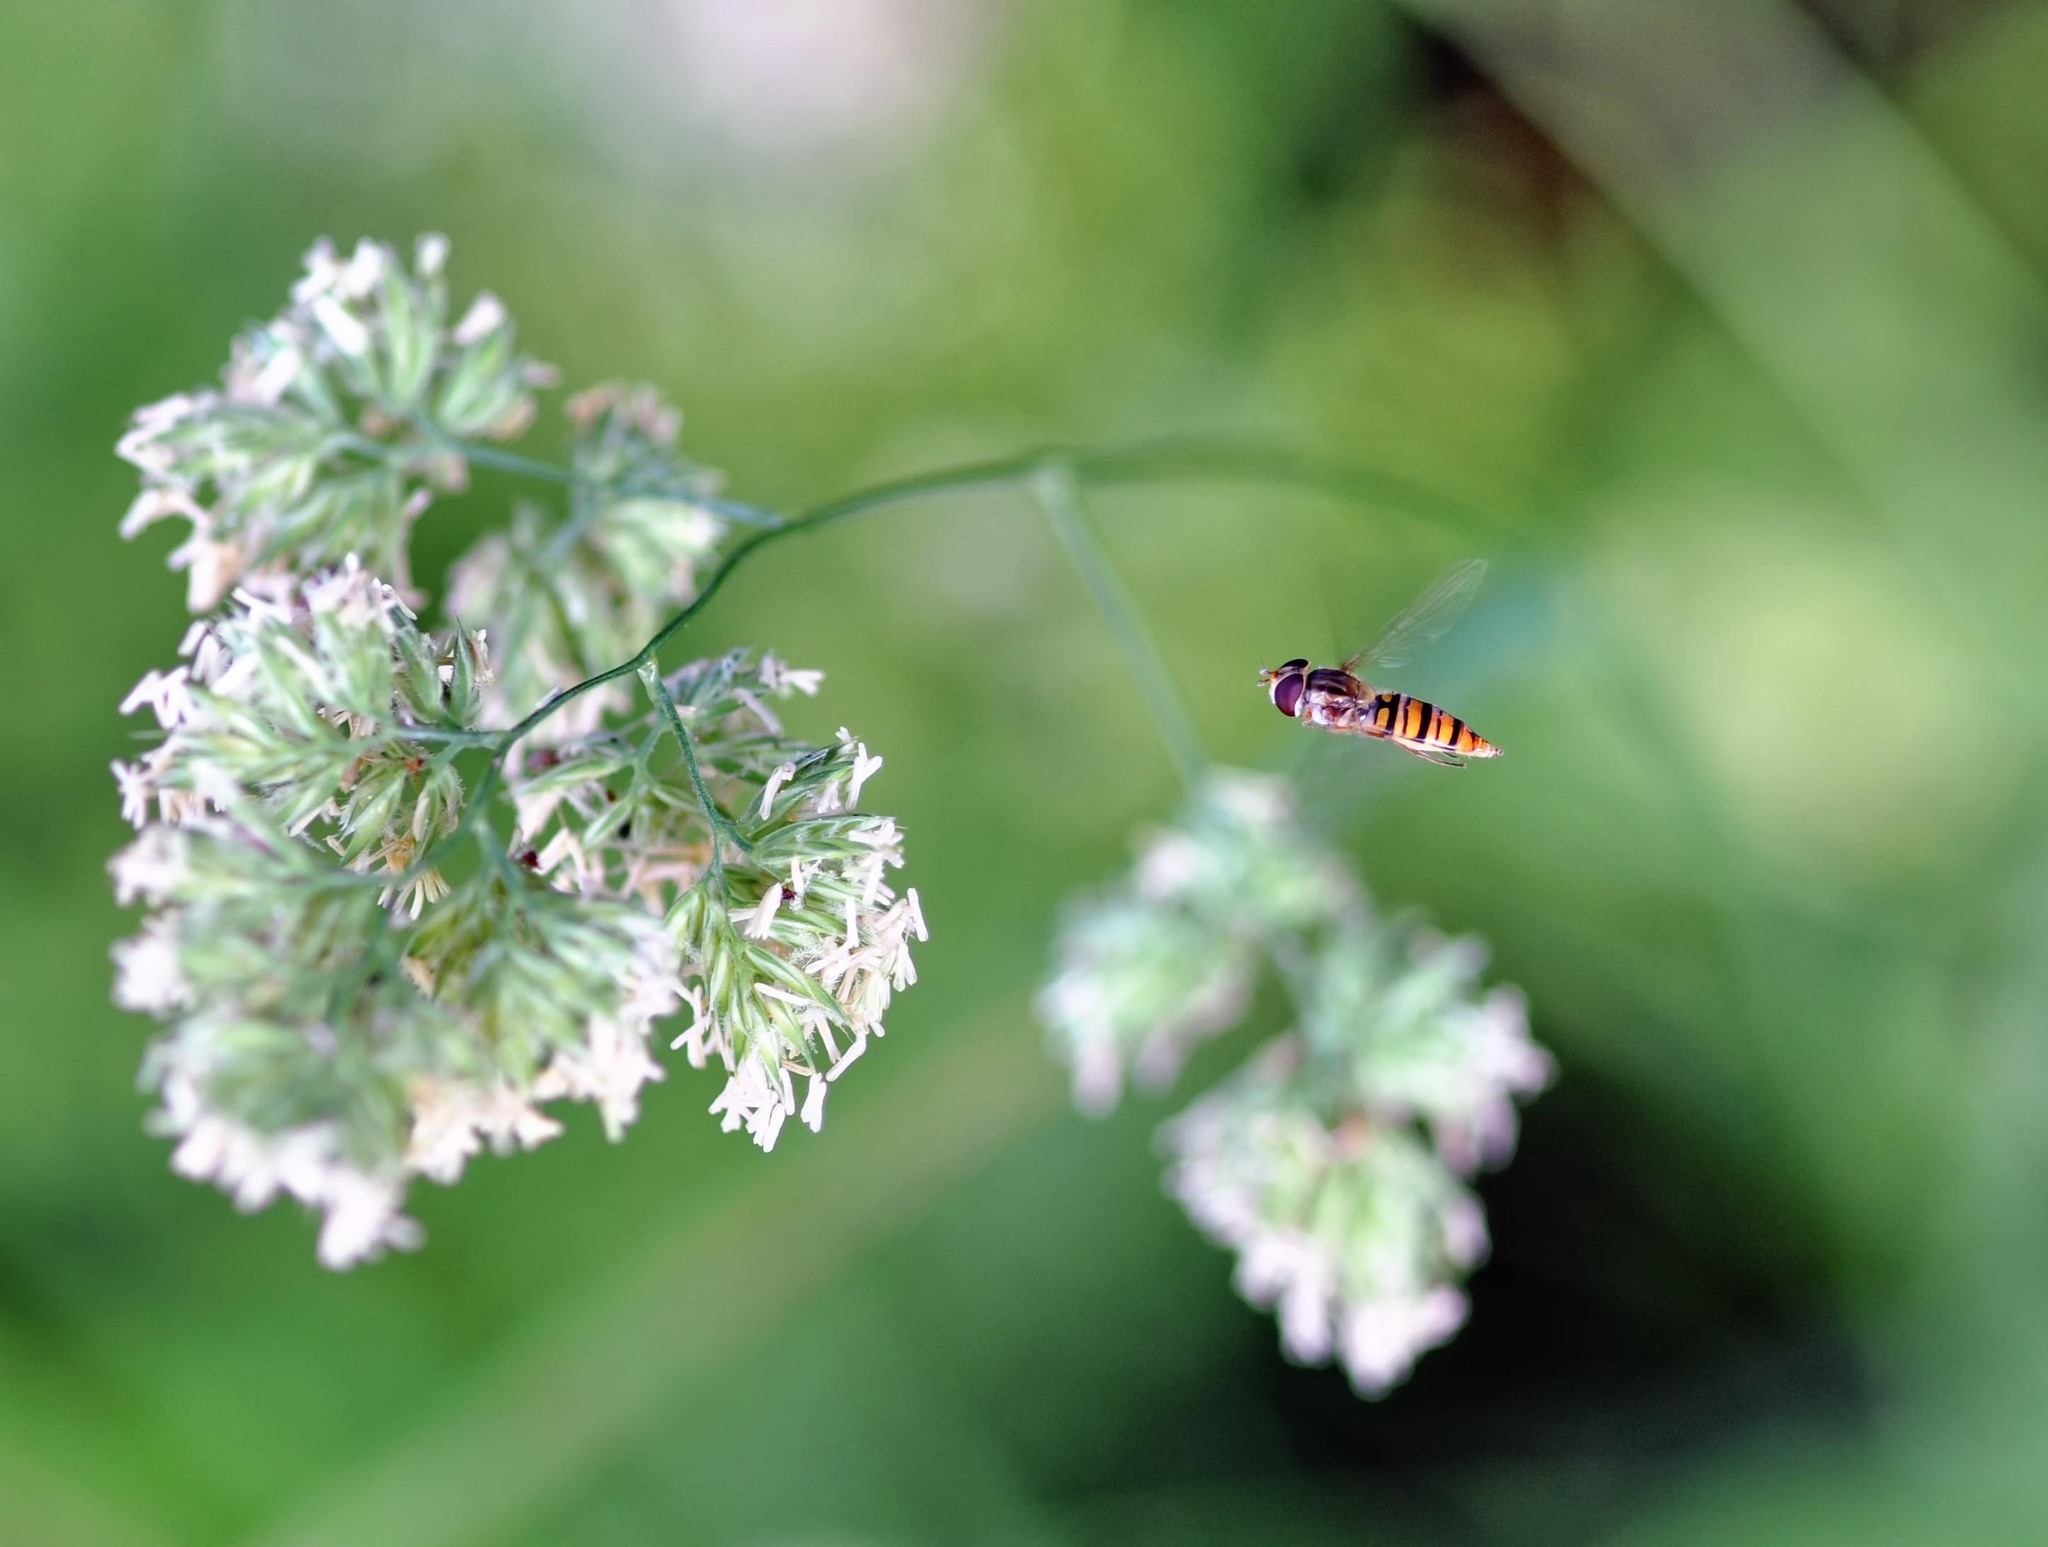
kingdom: Animalia
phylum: Arthropoda
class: Insecta
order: Diptera
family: Syrphidae
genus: Episyrphus
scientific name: Episyrphus balteatus
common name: Marmalade hoverfly
